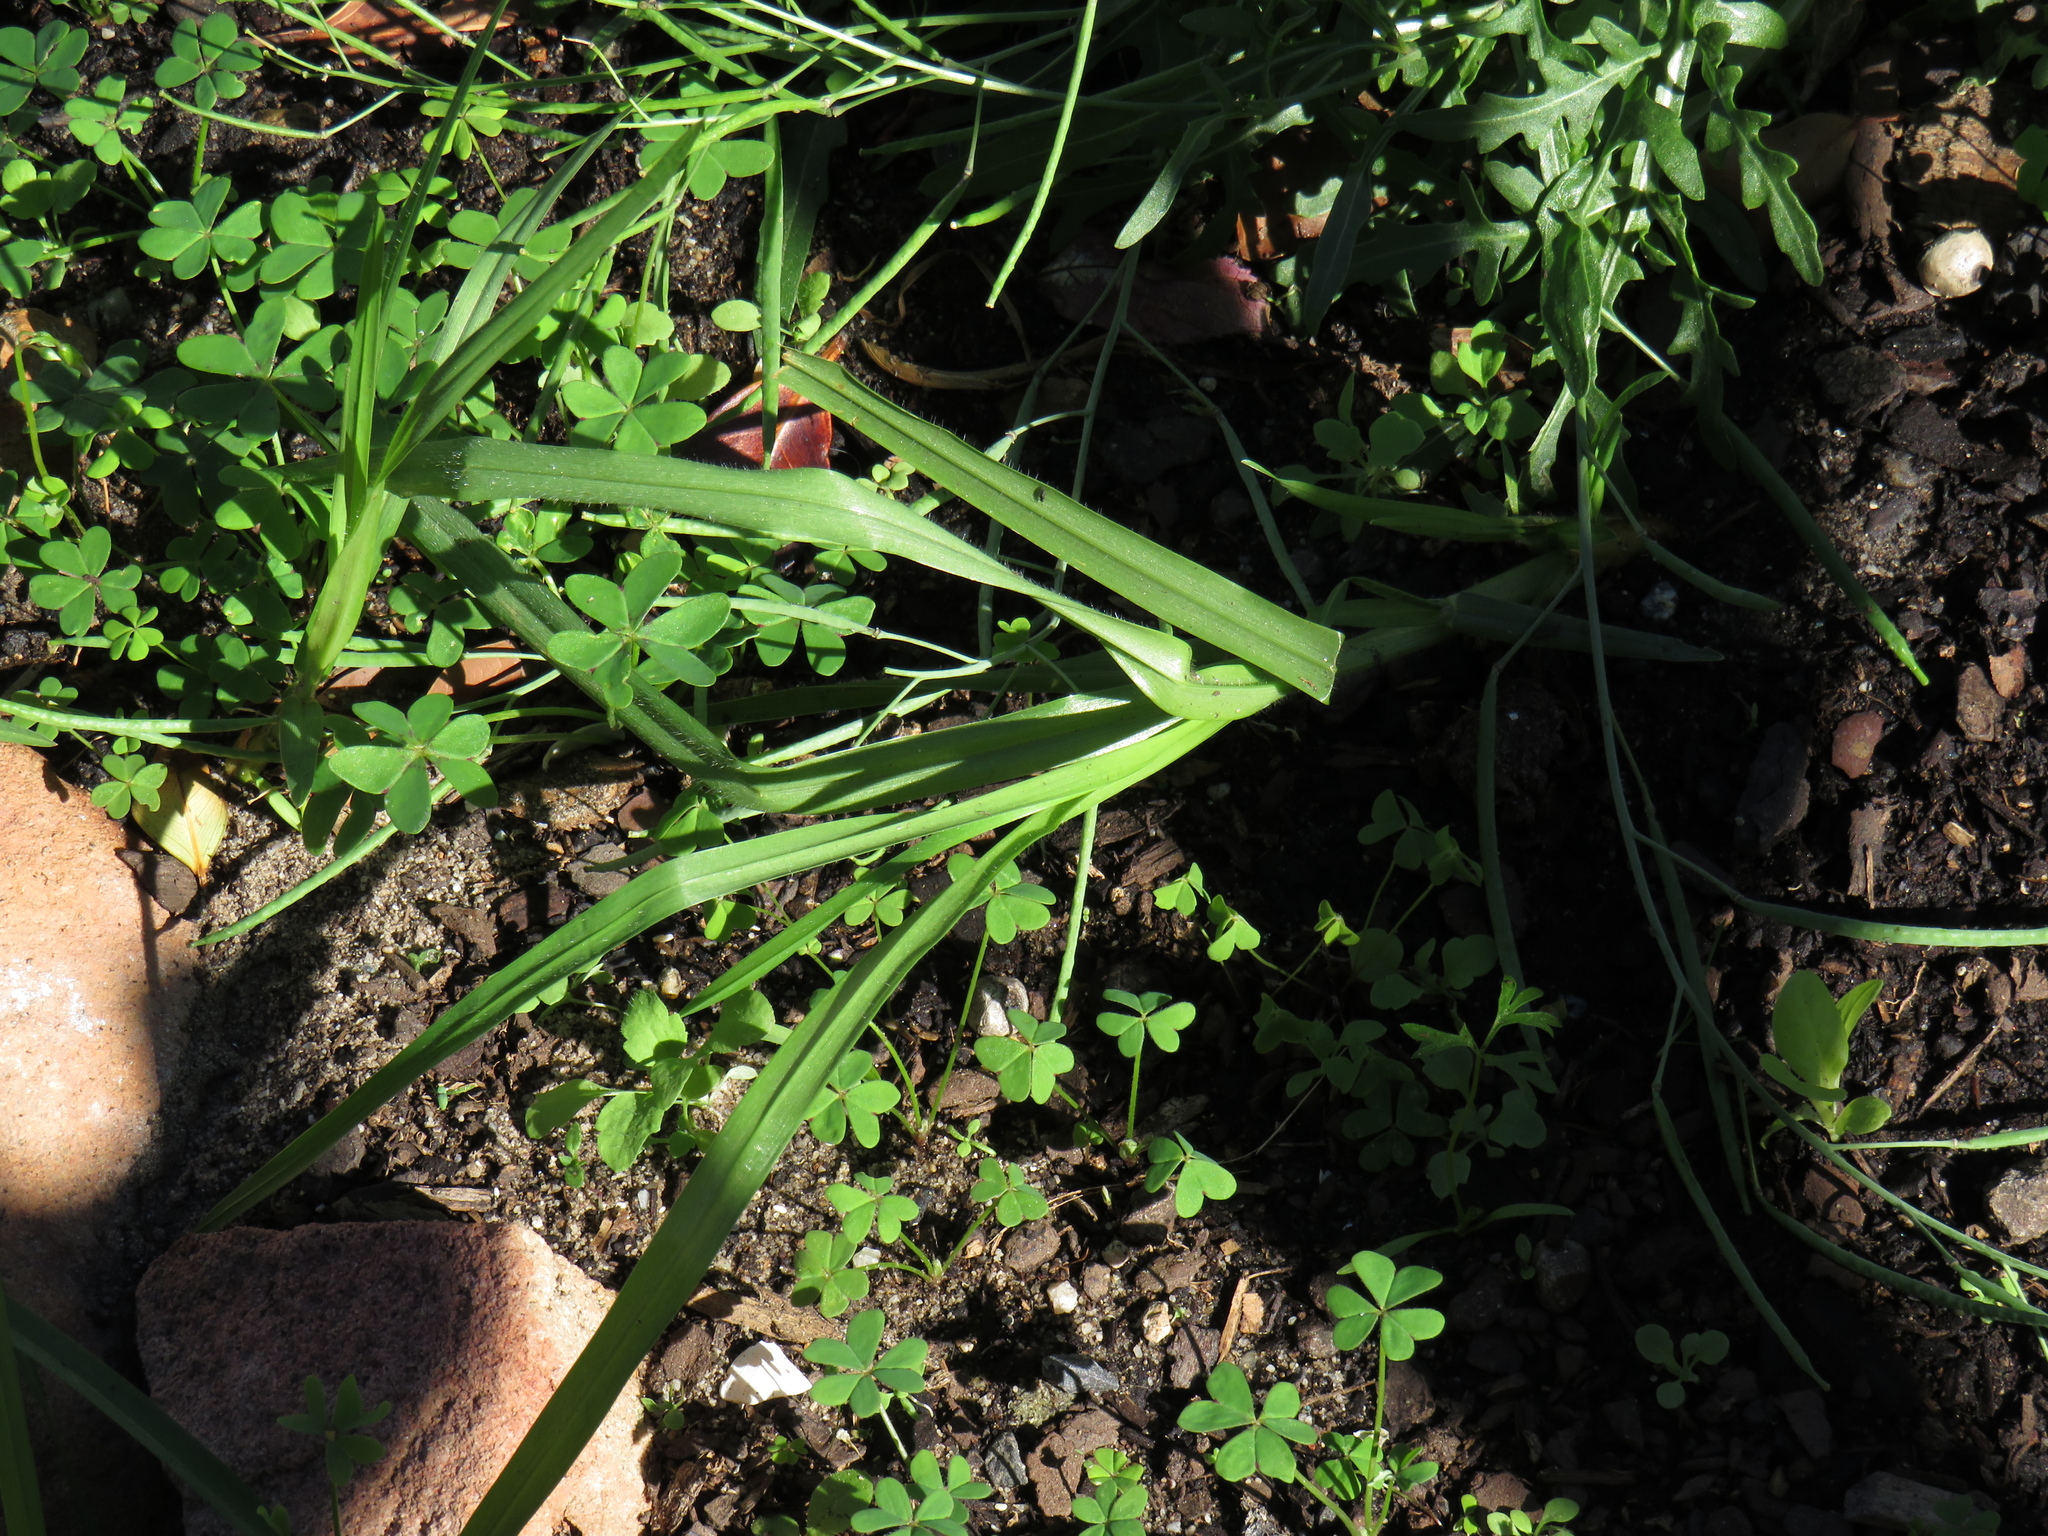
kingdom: Plantae
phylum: Tracheophyta
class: Liliopsida
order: Poales
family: Poaceae
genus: Cenchrus
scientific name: Cenchrus clandestinus
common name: Kikuyugrass
